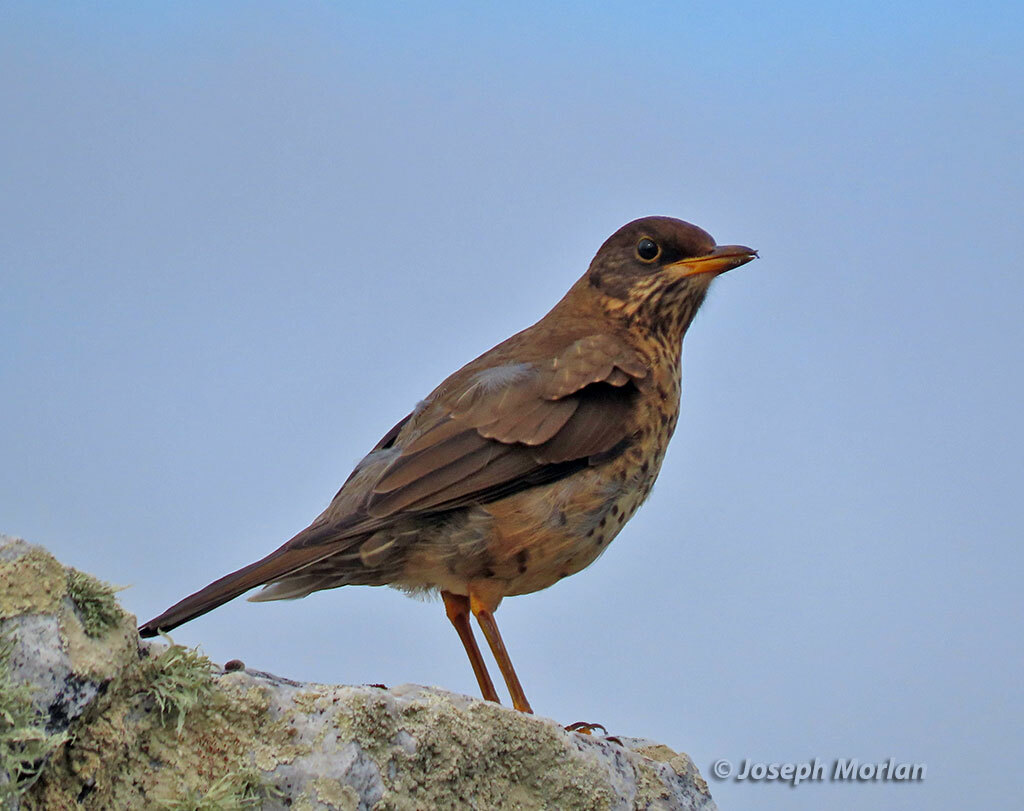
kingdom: Animalia
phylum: Chordata
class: Aves
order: Passeriformes
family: Turdidae
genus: Turdus
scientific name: Turdus falcklandii
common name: Austral thrush
